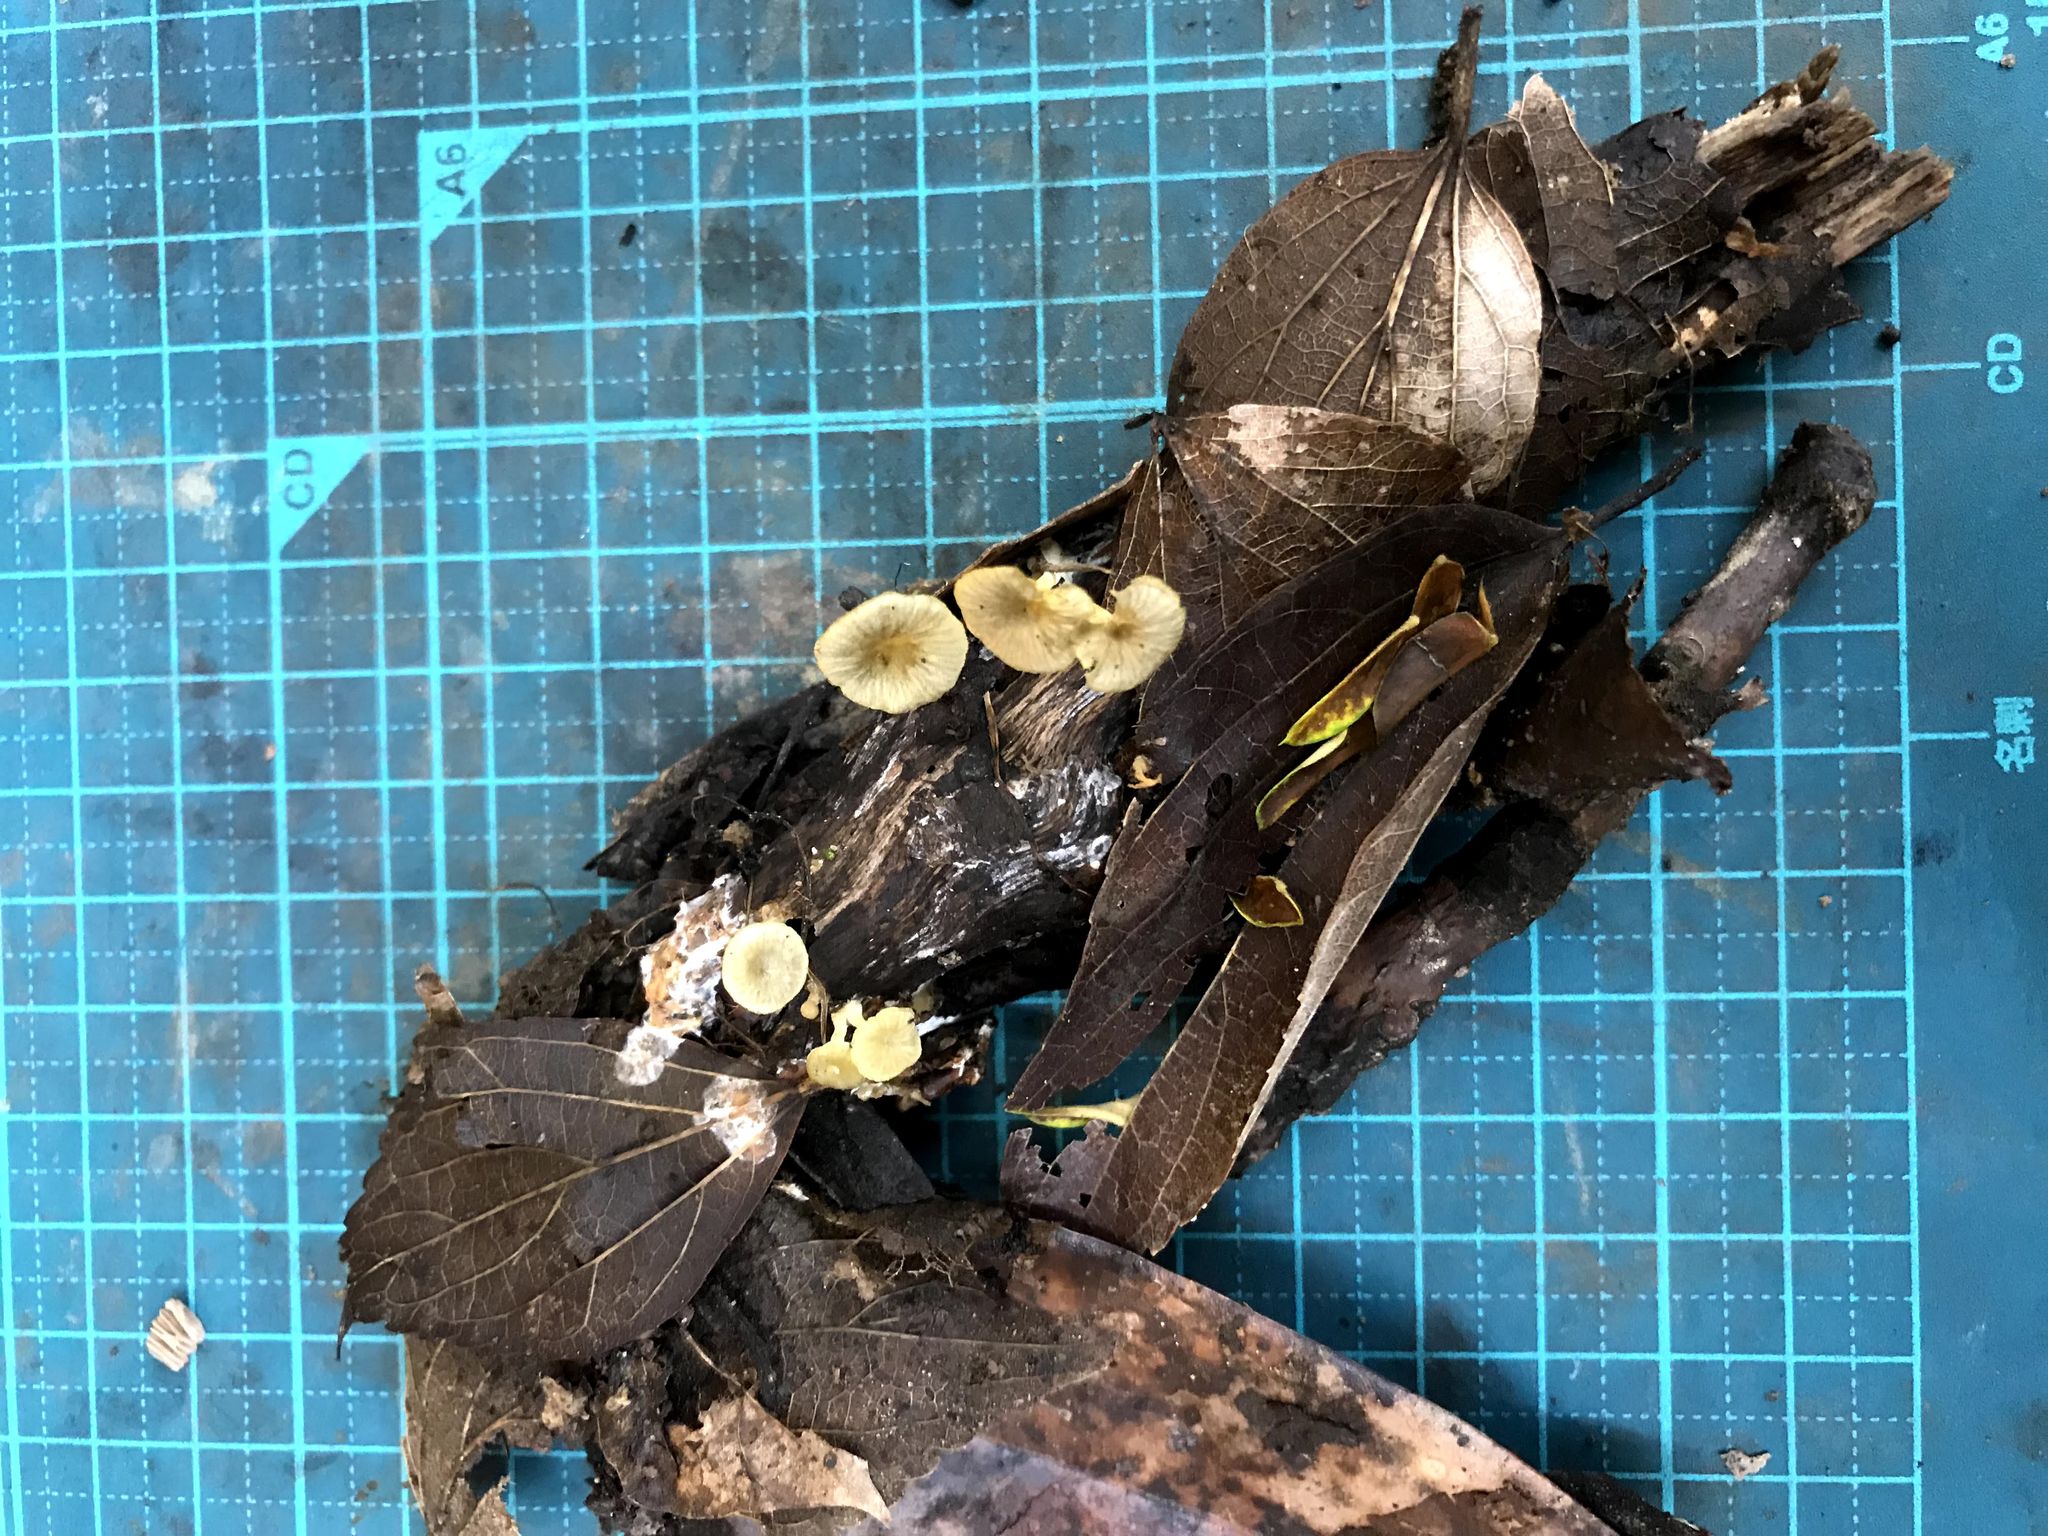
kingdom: Fungi
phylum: Basidiomycota
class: Agaricomycetes
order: Agaricales
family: Marasmiaceae
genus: Gerronema
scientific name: Gerronema nemorale
